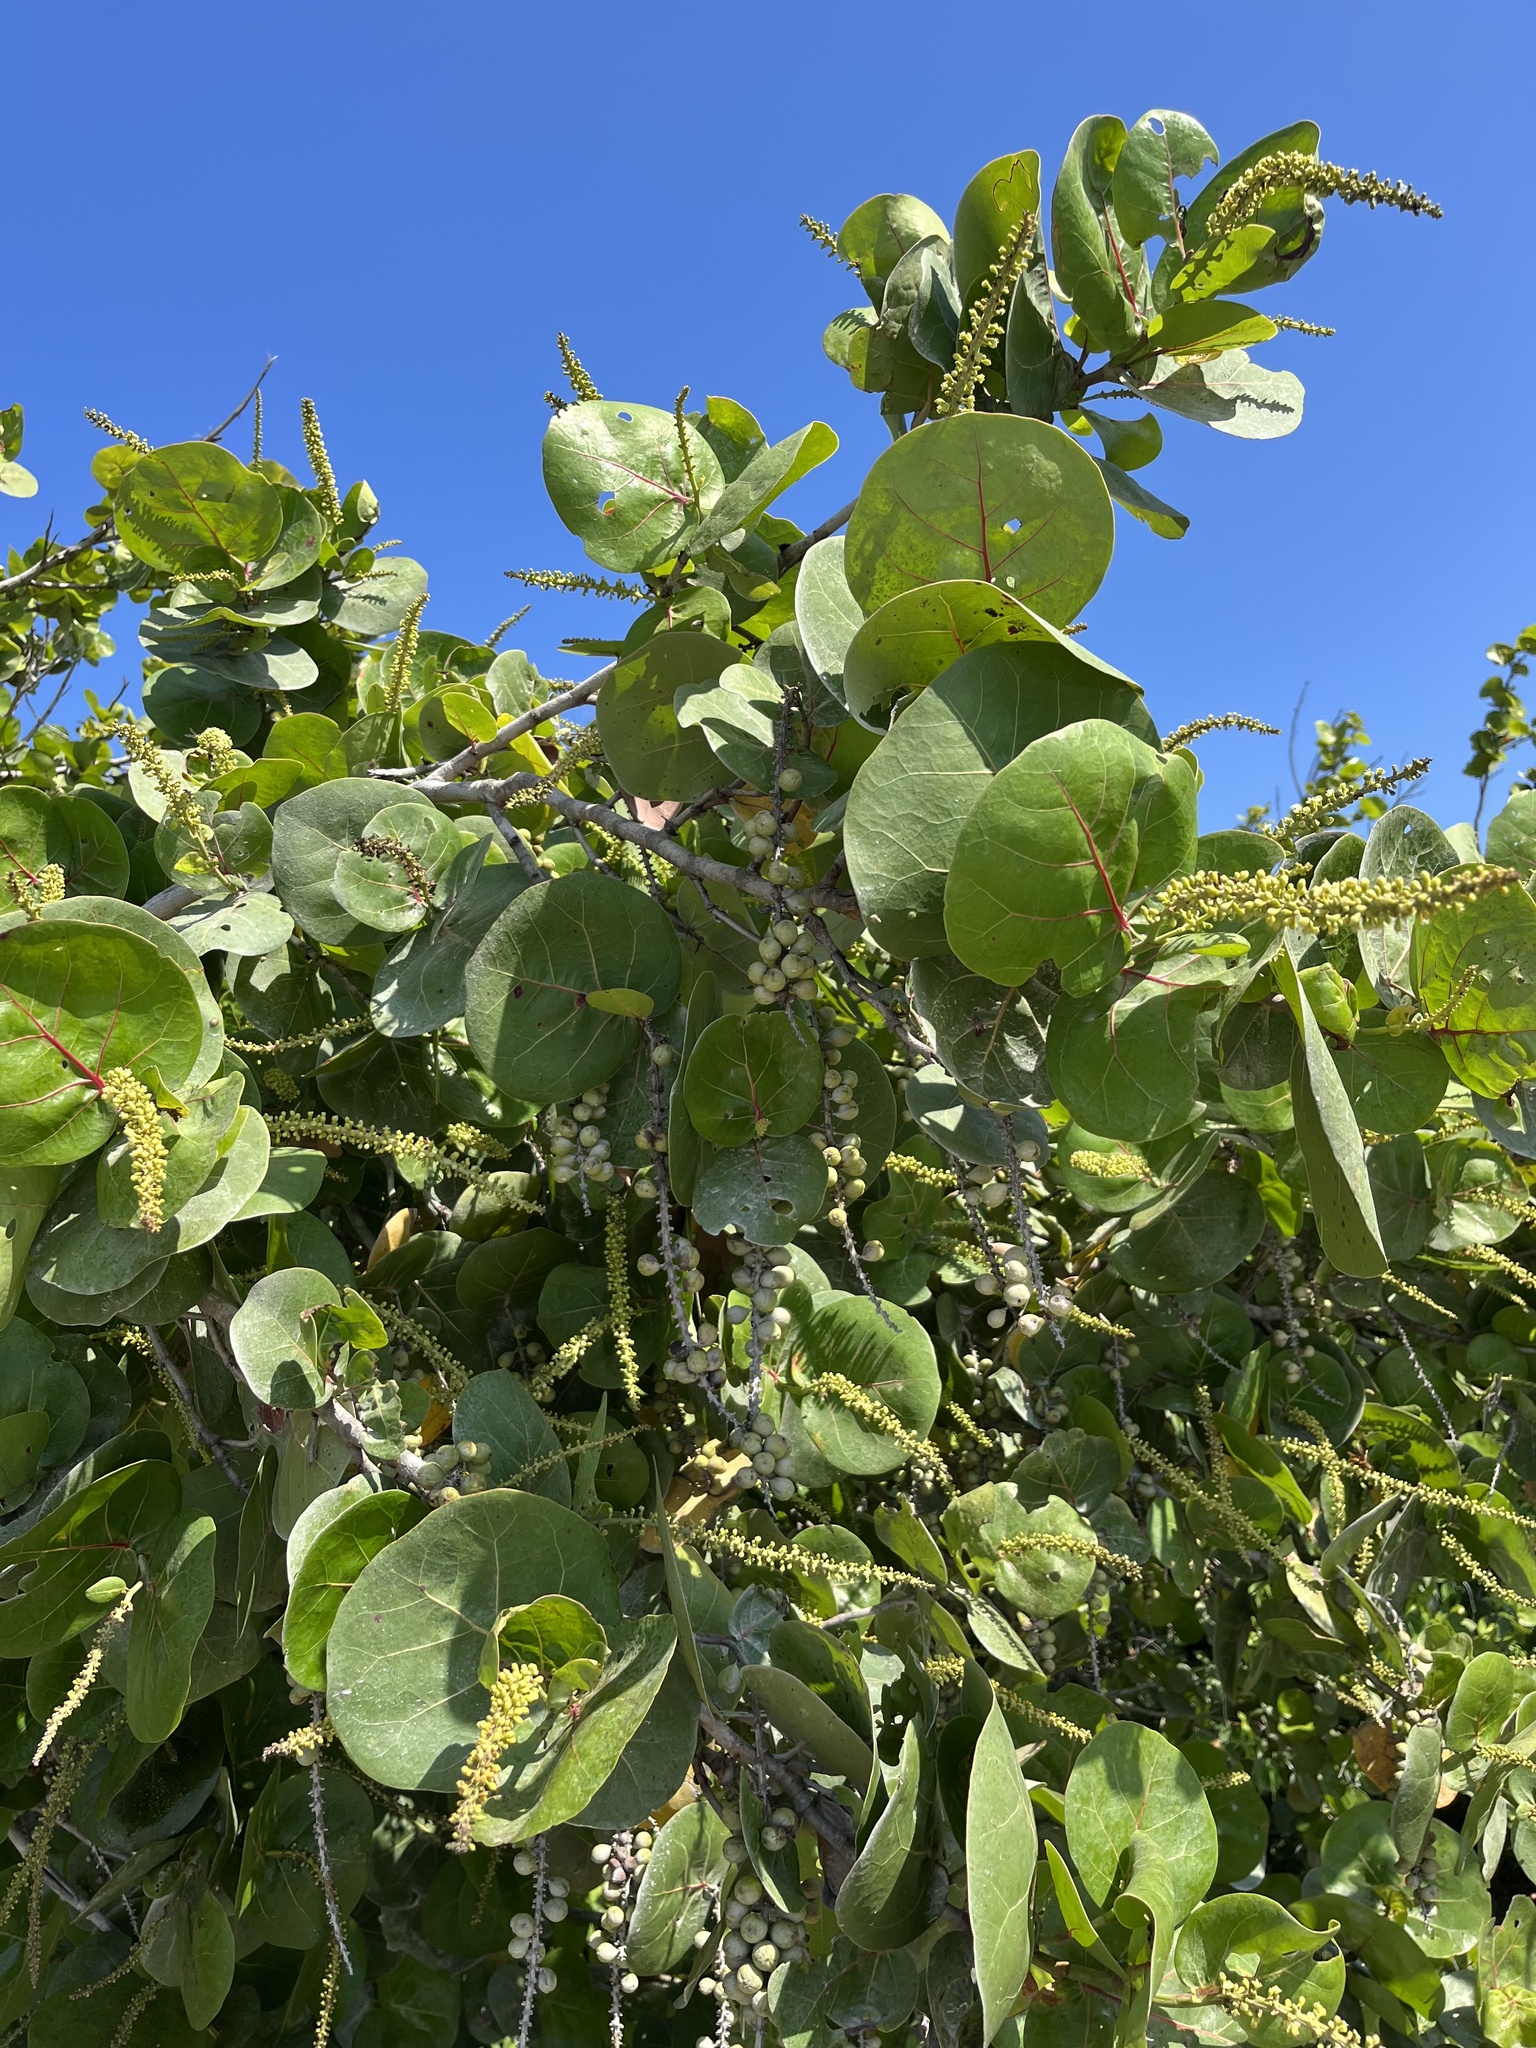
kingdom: Plantae
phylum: Tracheophyta
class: Magnoliopsida
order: Caryophyllales
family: Polygonaceae
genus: Coccoloba
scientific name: Coccoloba uvifera
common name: Seagrape
